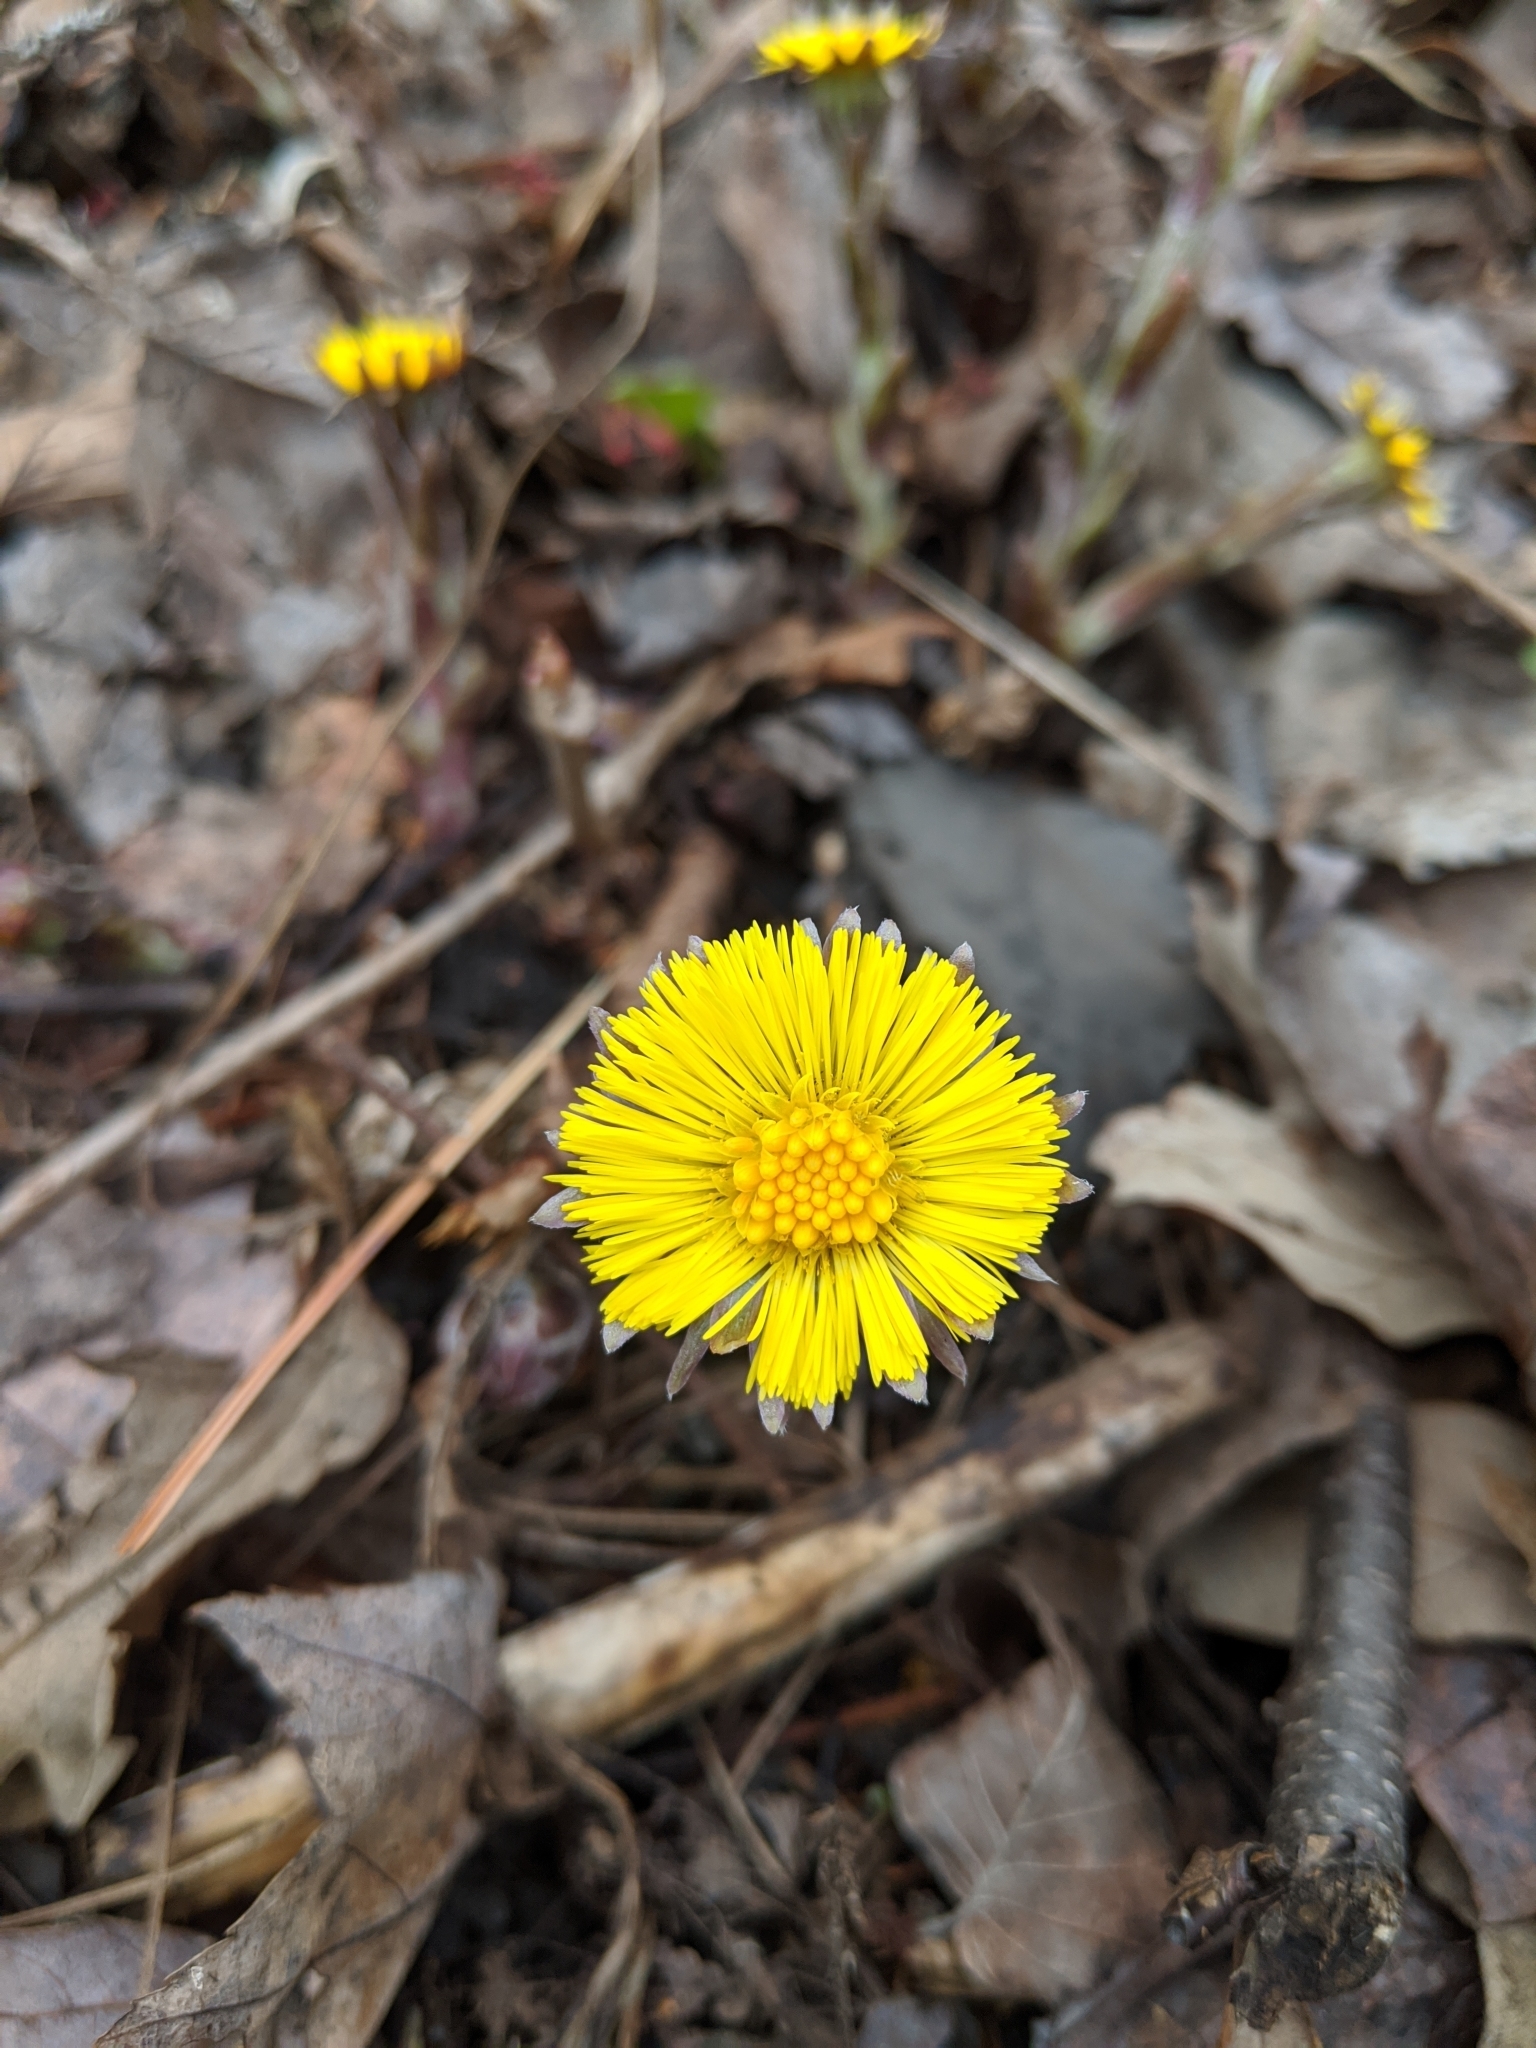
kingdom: Plantae
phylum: Tracheophyta
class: Magnoliopsida
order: Asterales
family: Asteraceae
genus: Tussilago
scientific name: Tussilago farfara
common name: Coltsfoot
